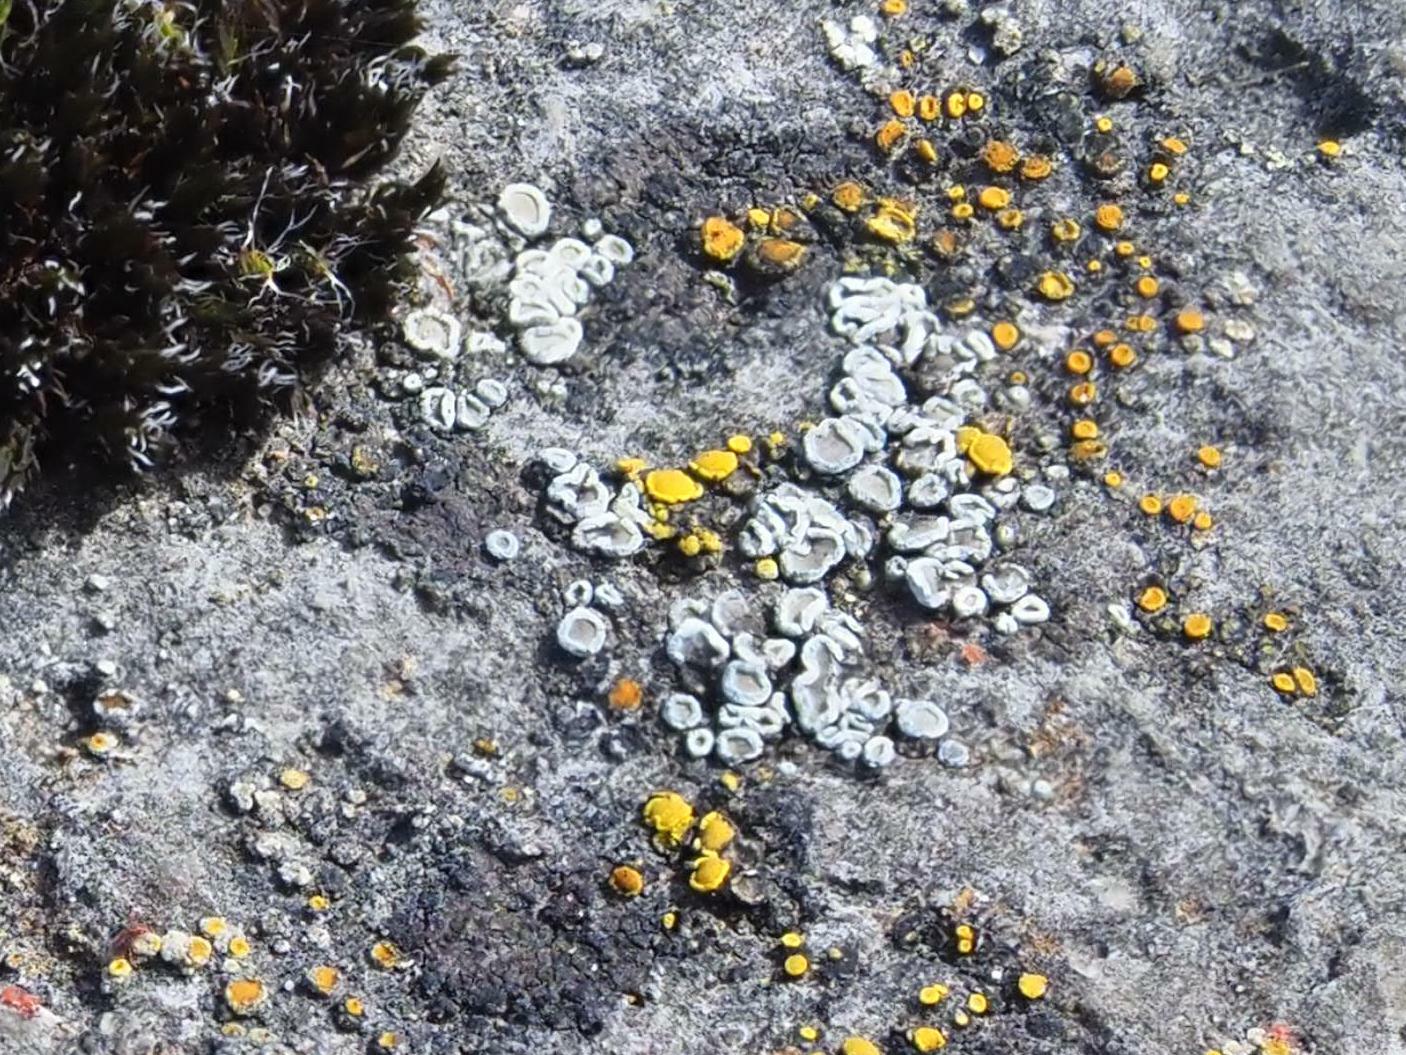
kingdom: Fungi
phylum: Ascomycota
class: Lecanoromycetes
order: Lecanorales
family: Lecanoraceae
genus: Polyozosia
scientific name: Polyozosia dispersa
